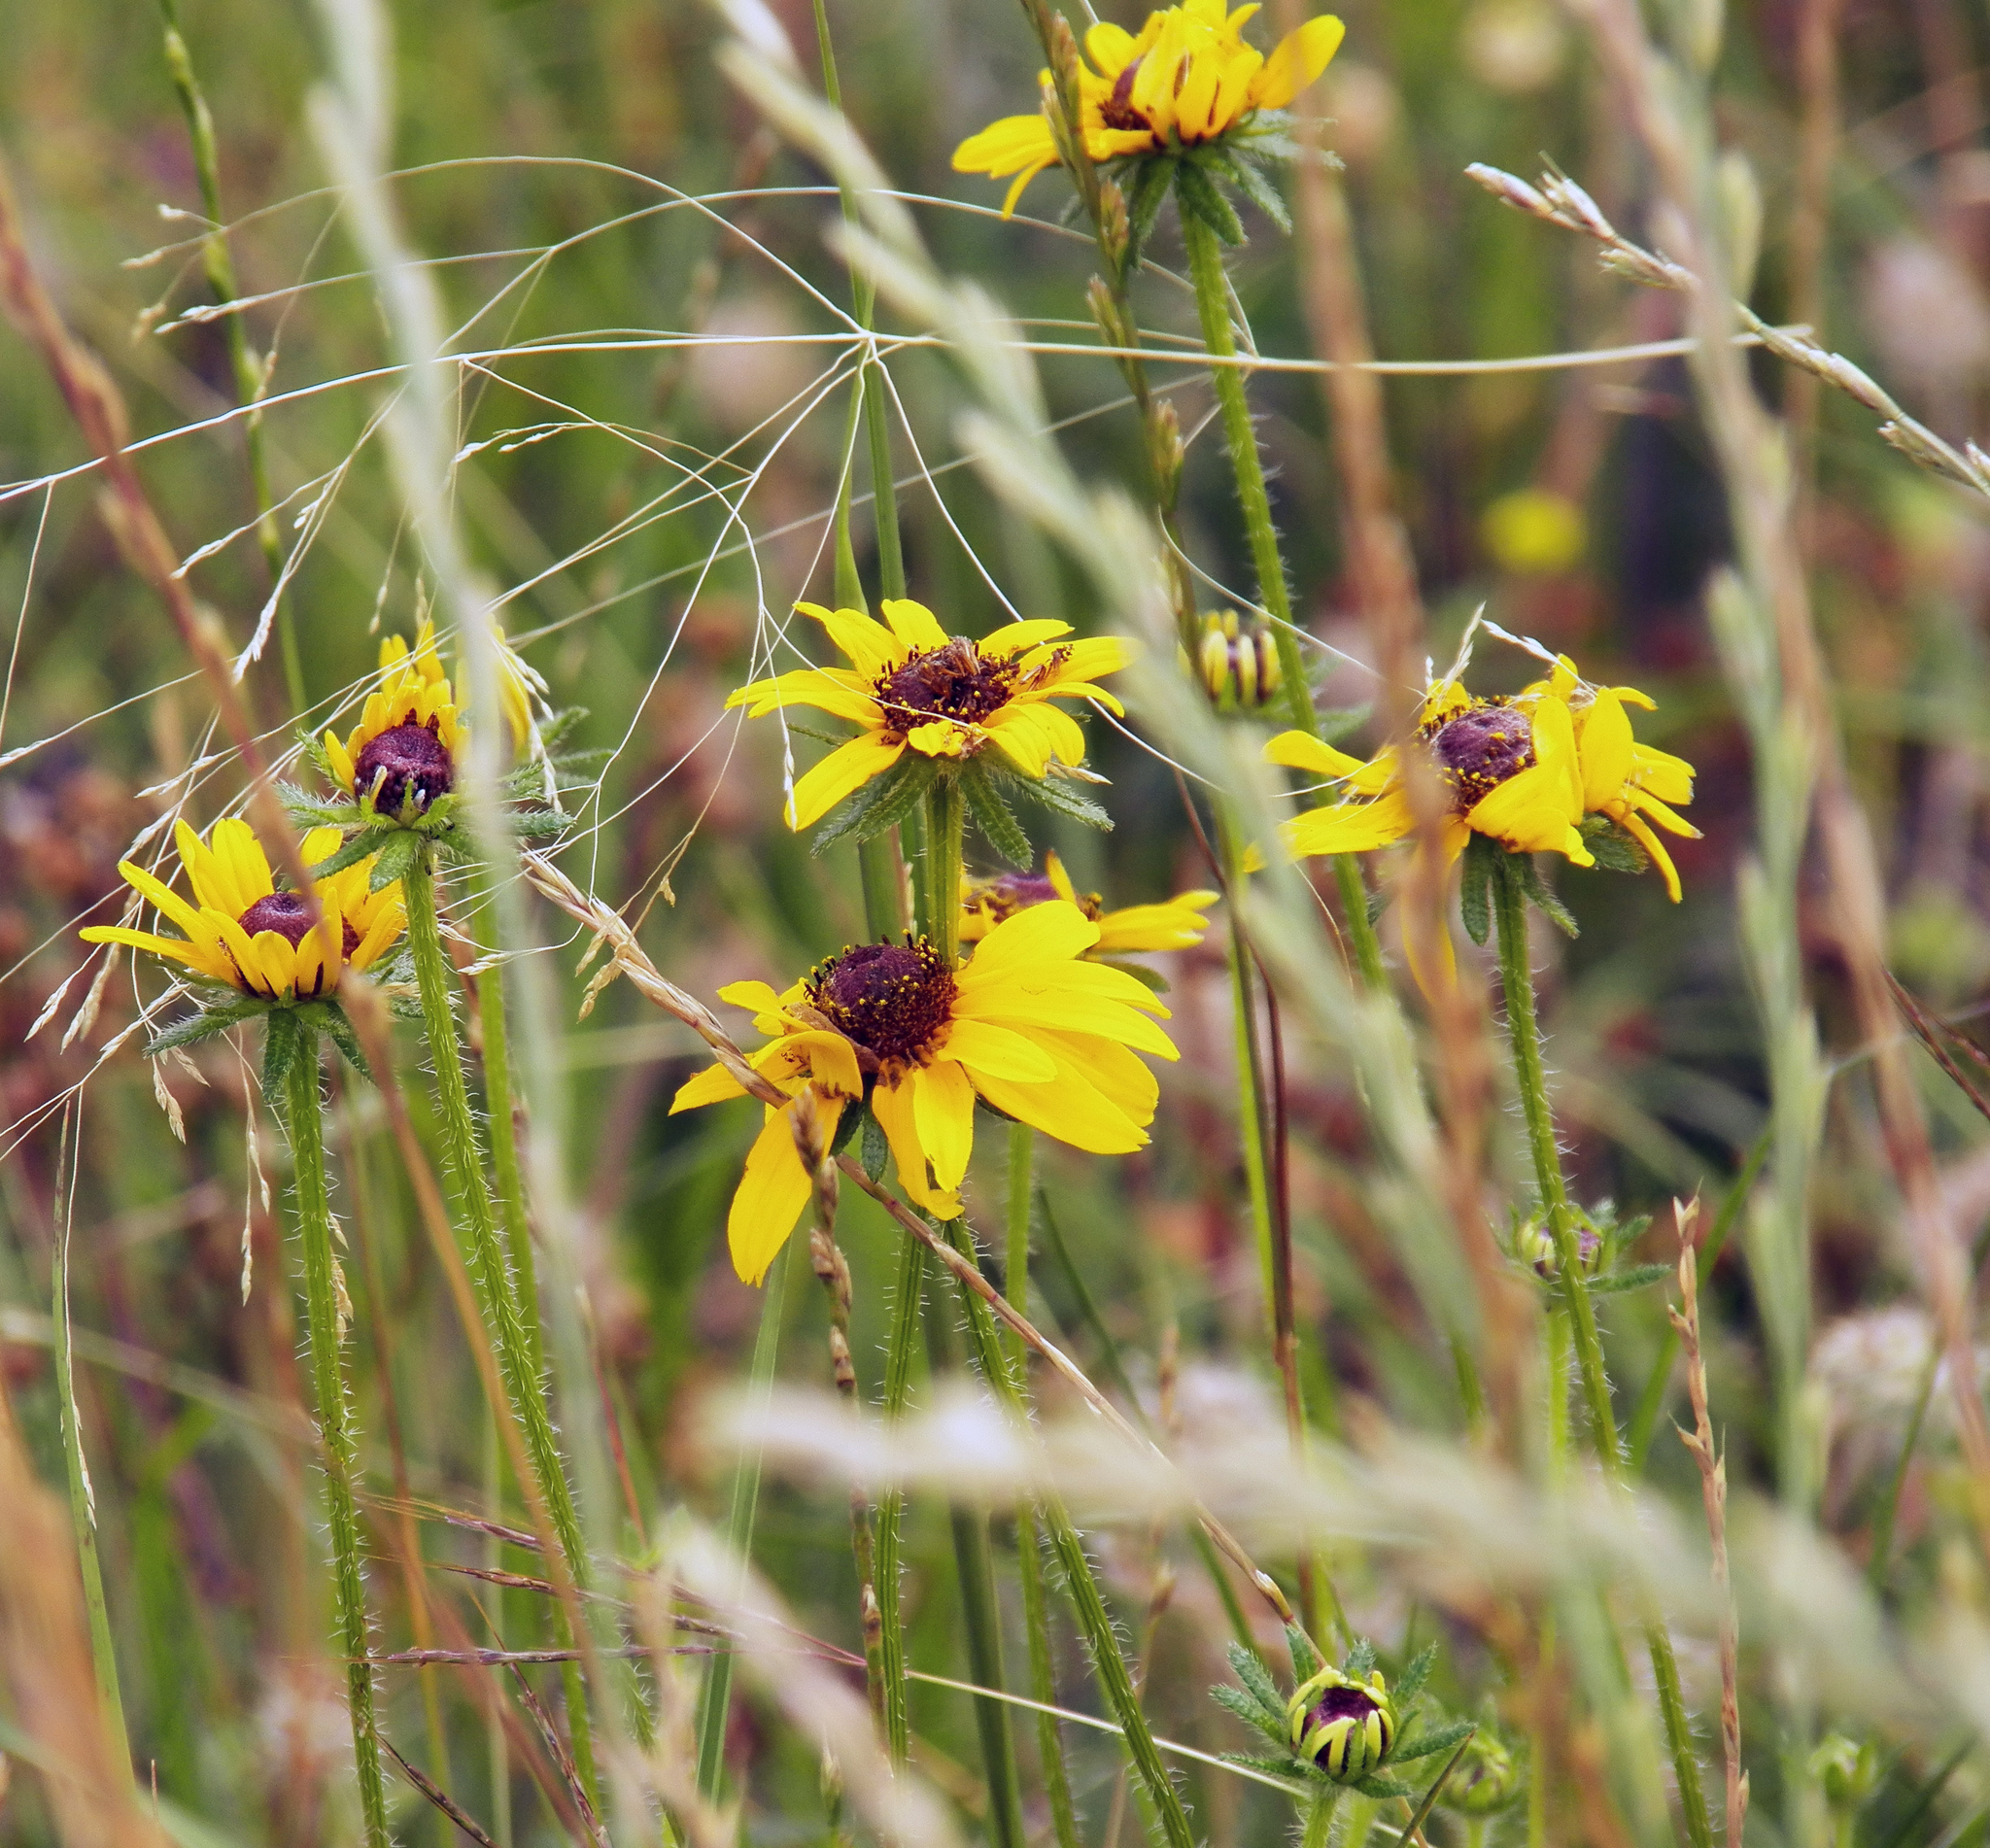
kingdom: Plantae
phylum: Tracheophyta
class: Magnoliopsida
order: Asterales
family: Asteraceae
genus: Rudbeckia
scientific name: Rudbeckia hirta
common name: Black-eyed-susan
